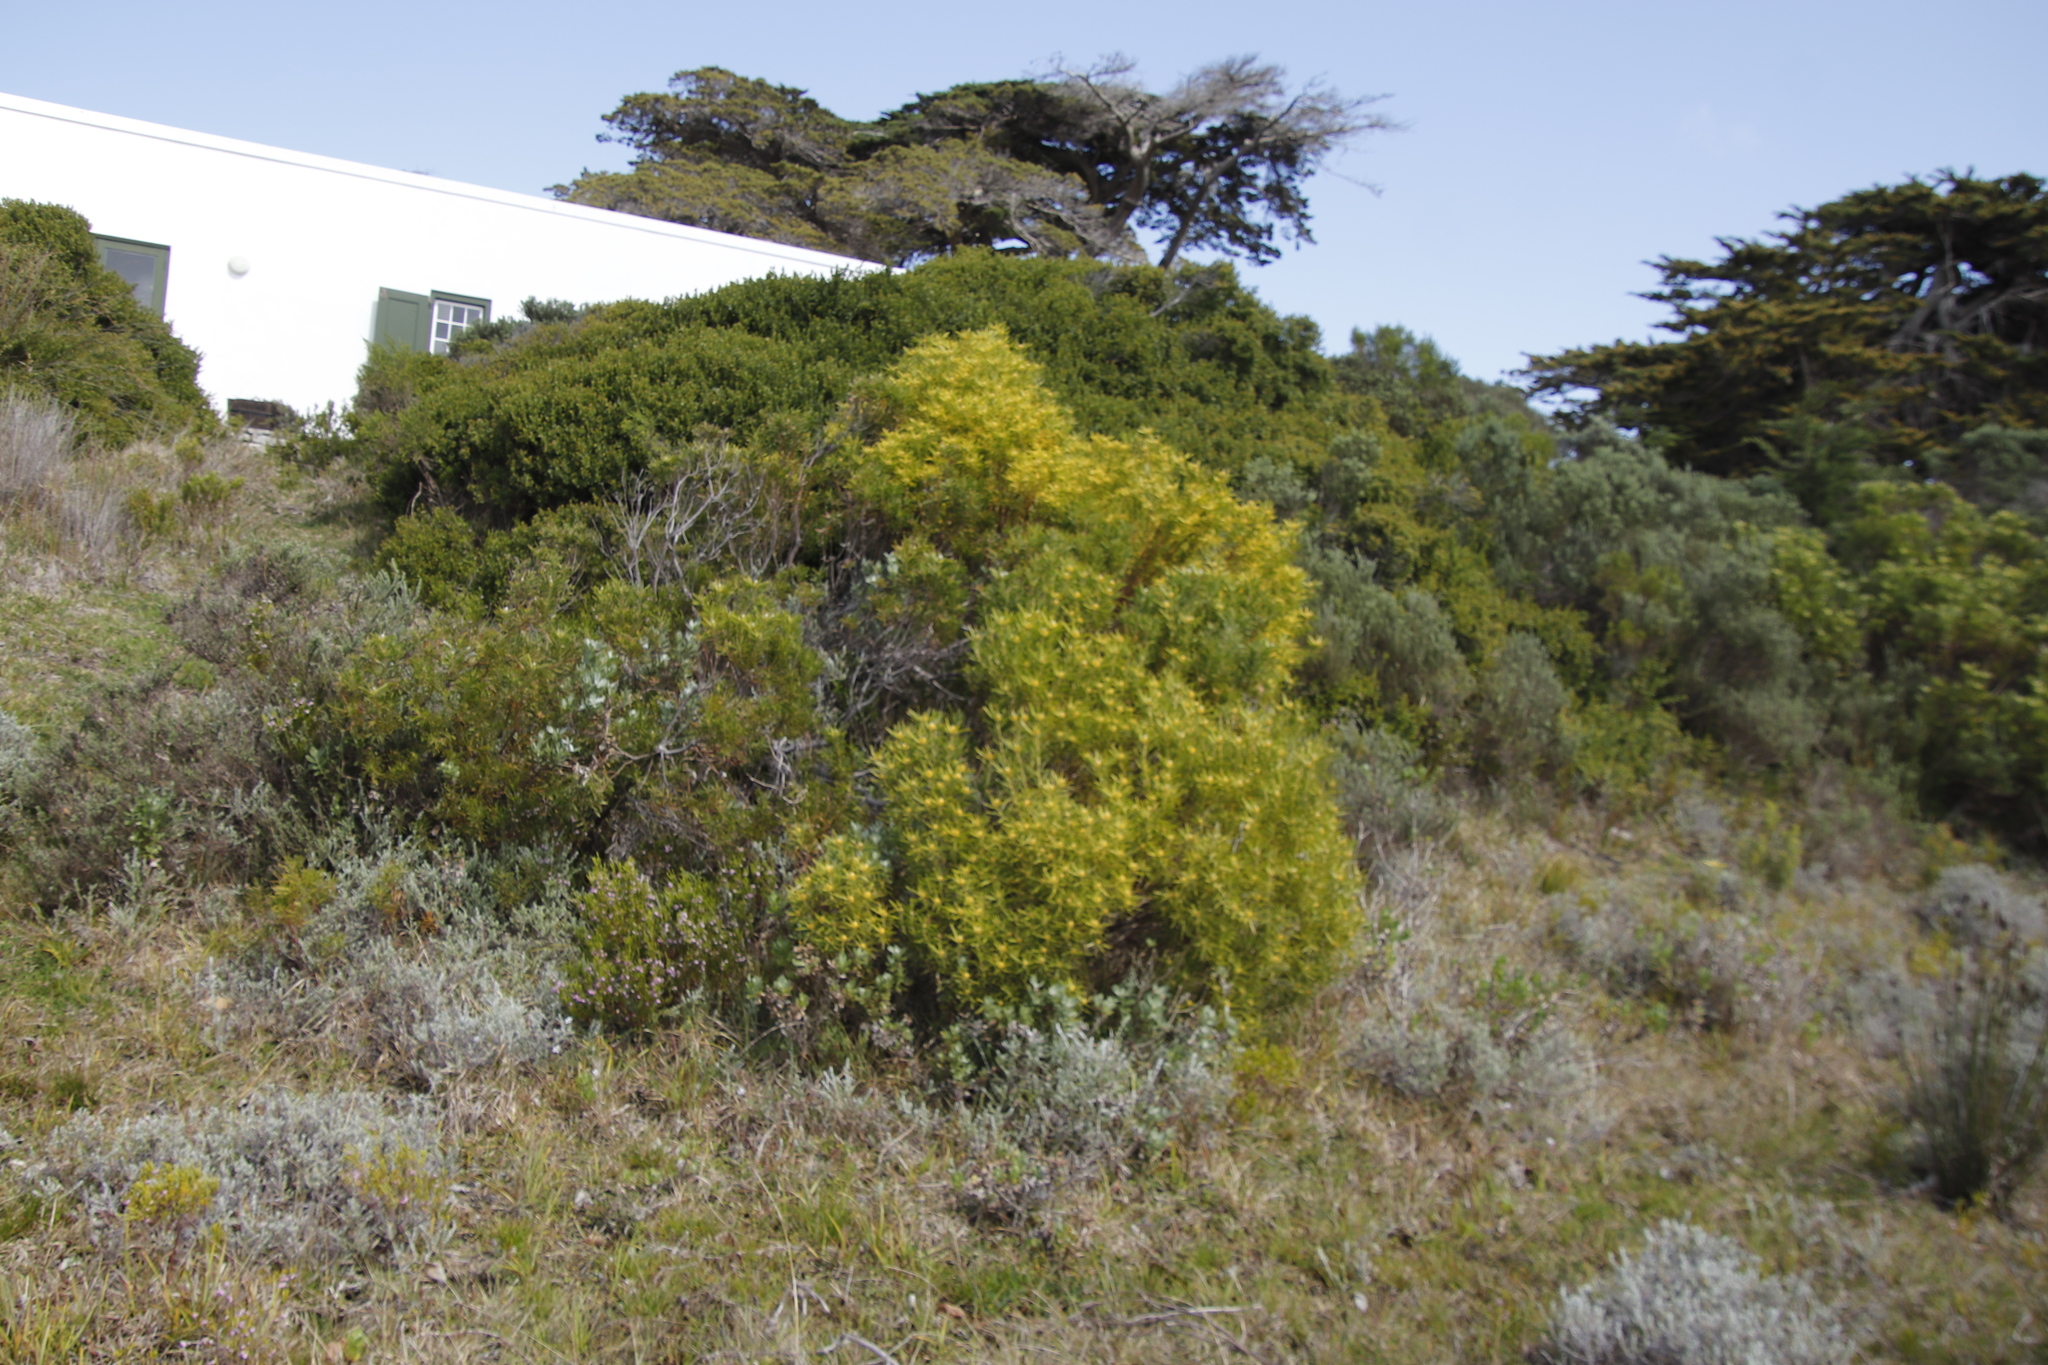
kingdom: Plantae
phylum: Tracheophyta
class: Magnoliopsida
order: Proteales
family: Proteaceae
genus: Leucadendron
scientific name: Leucadendron coniferum
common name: Dune conebush
